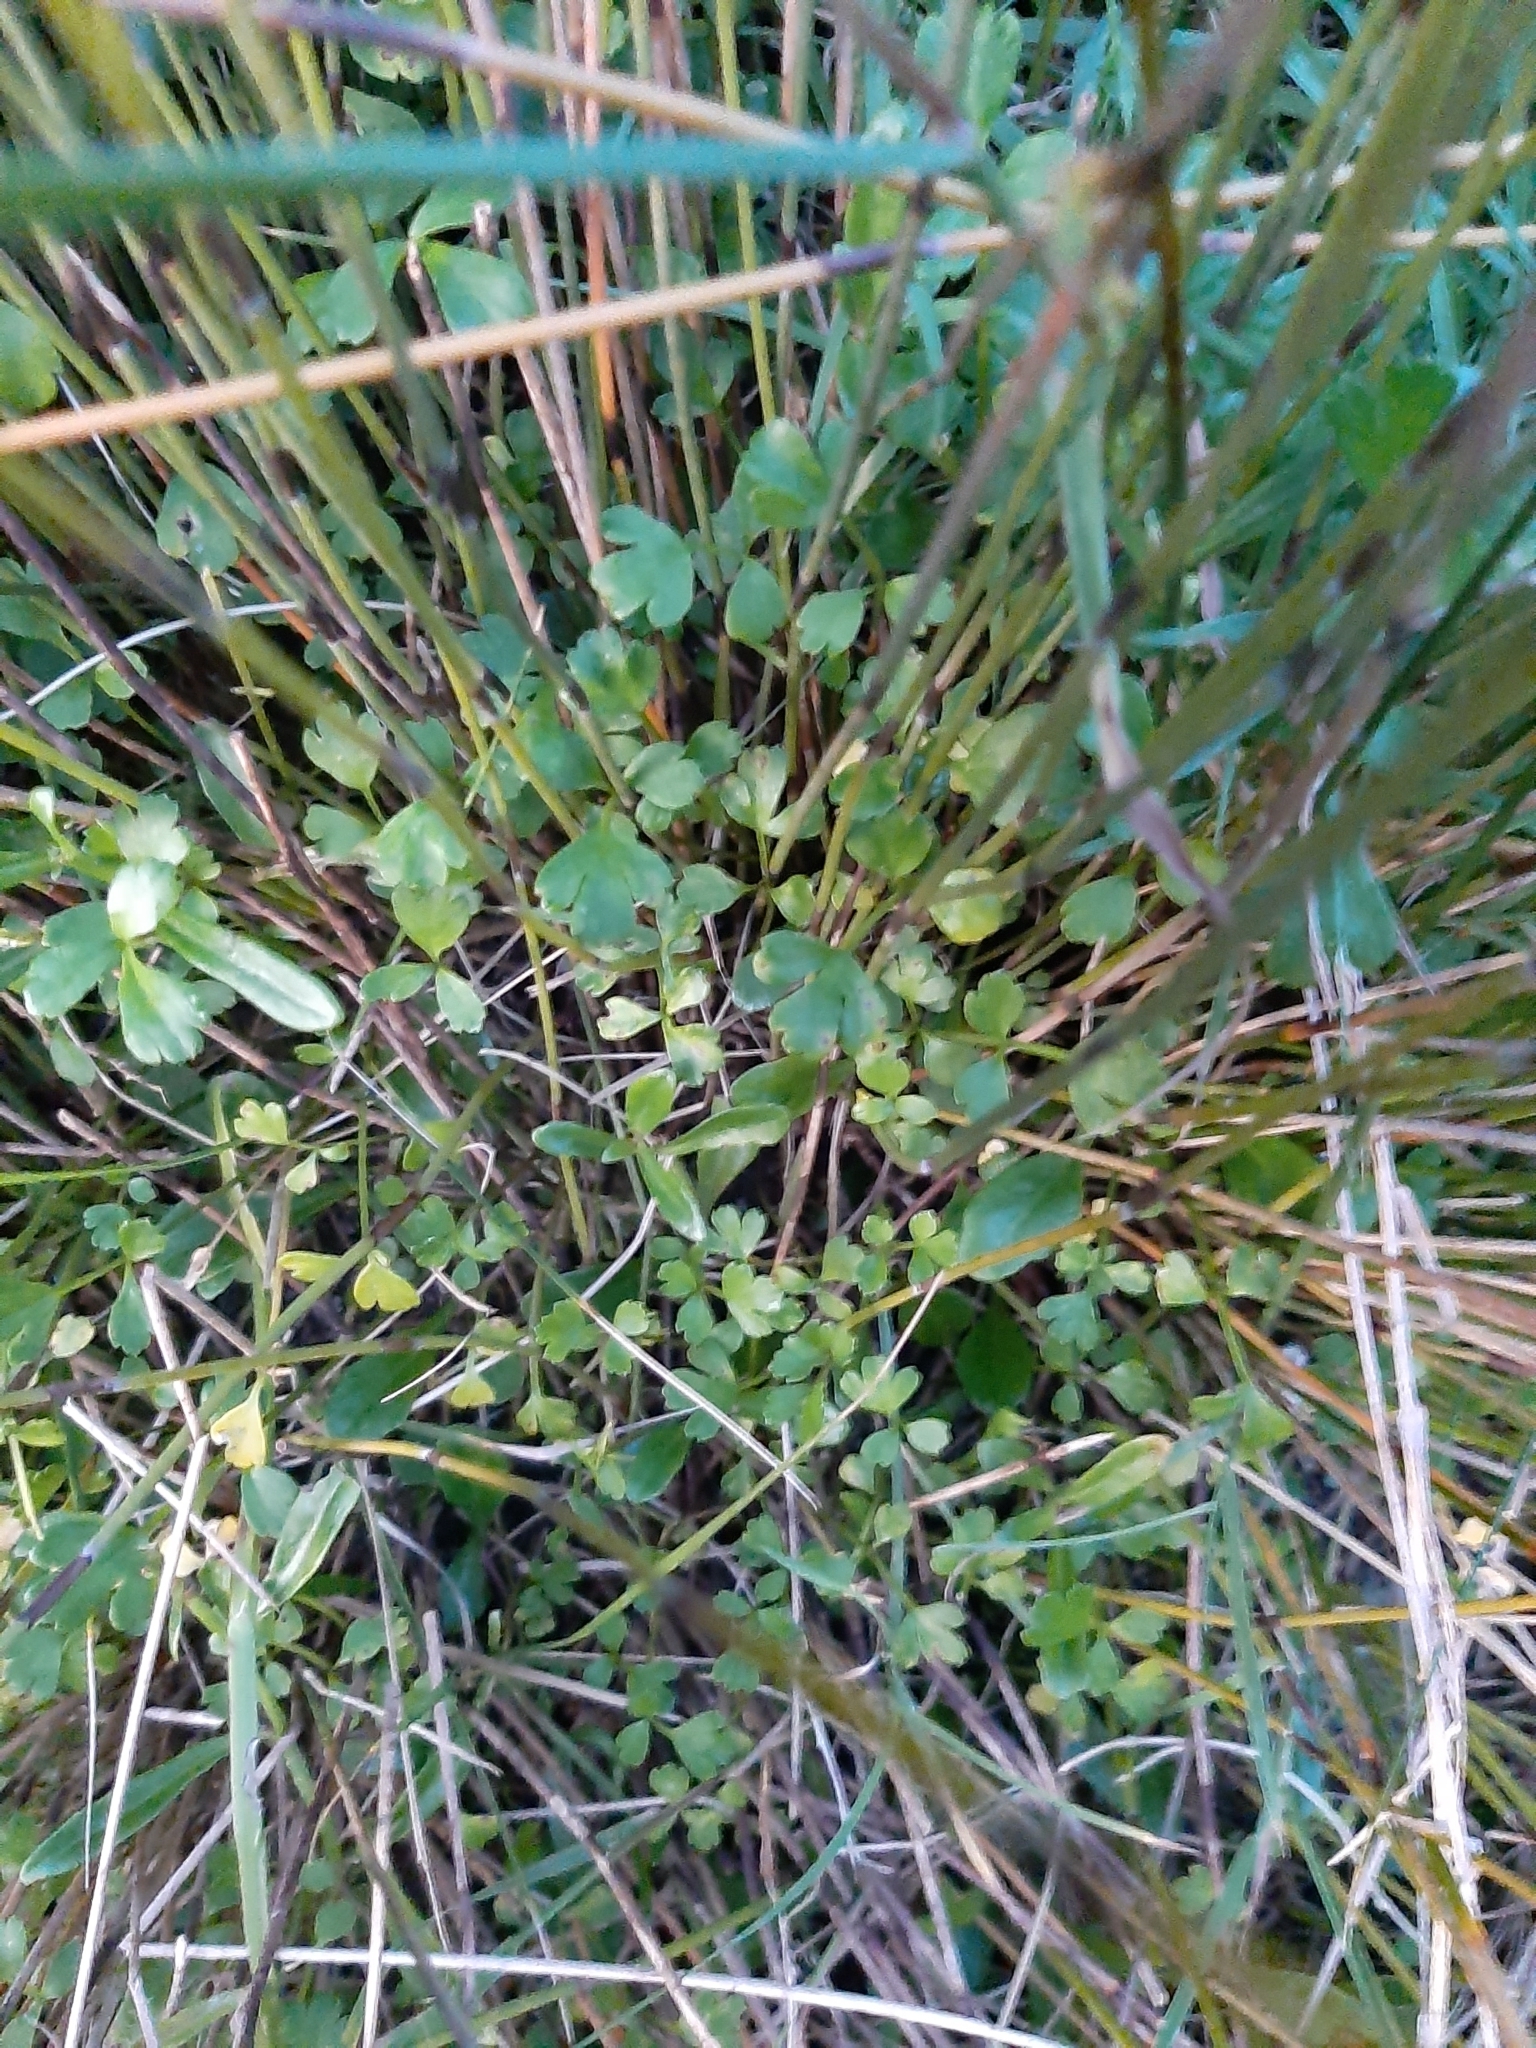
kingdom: Plantae
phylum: Tracheophyta
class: Magnoliopsida
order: Apiales
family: Apiaceae
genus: Apium
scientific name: Apium prostratum
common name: Prostrate marshwort
